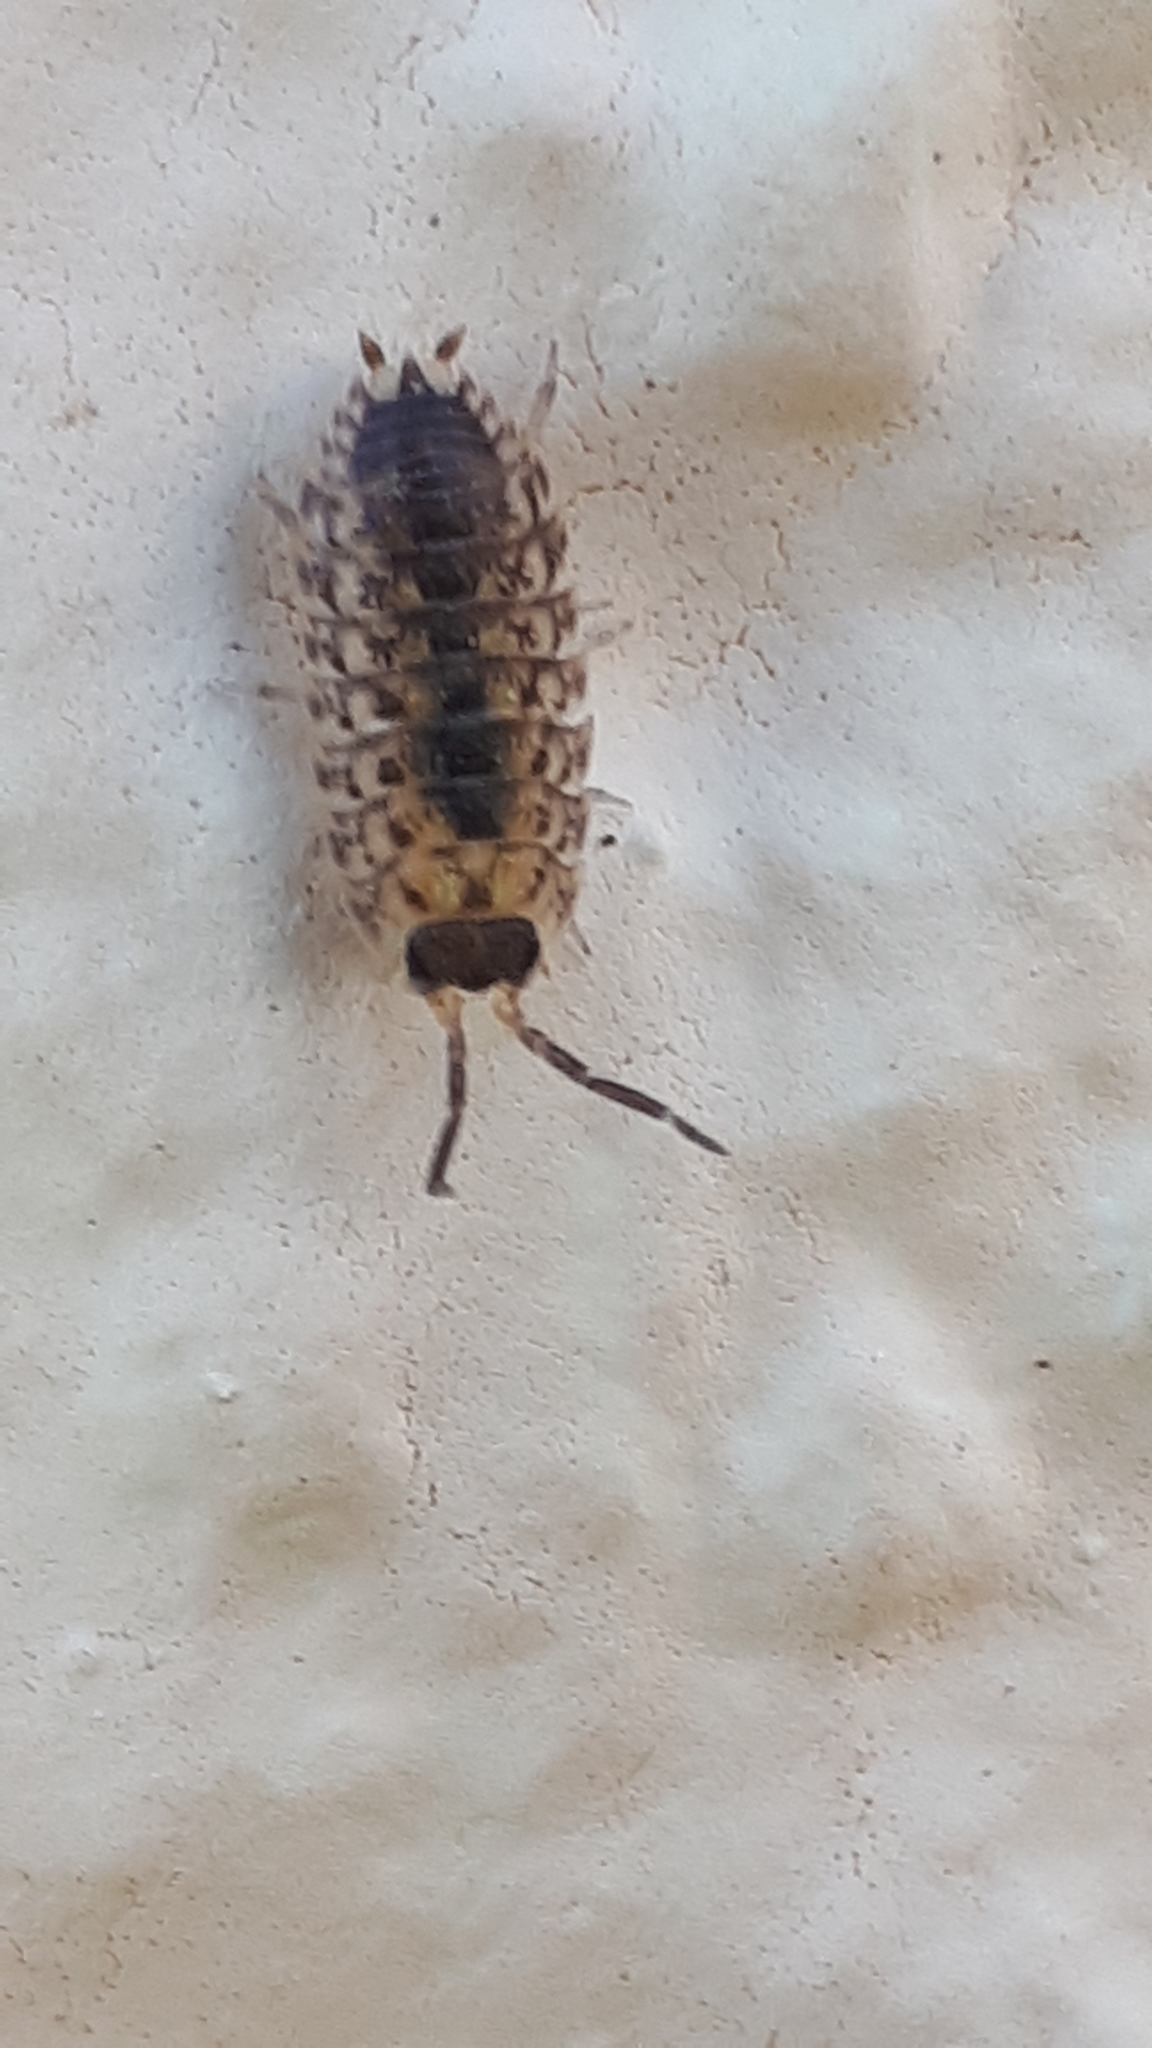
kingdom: Animalia
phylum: Arthropoda
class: Malacostraca
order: Isopoda
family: Porcellionidae
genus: Porcellio
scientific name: Porcellio spinicornis
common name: Painted woodlouse
